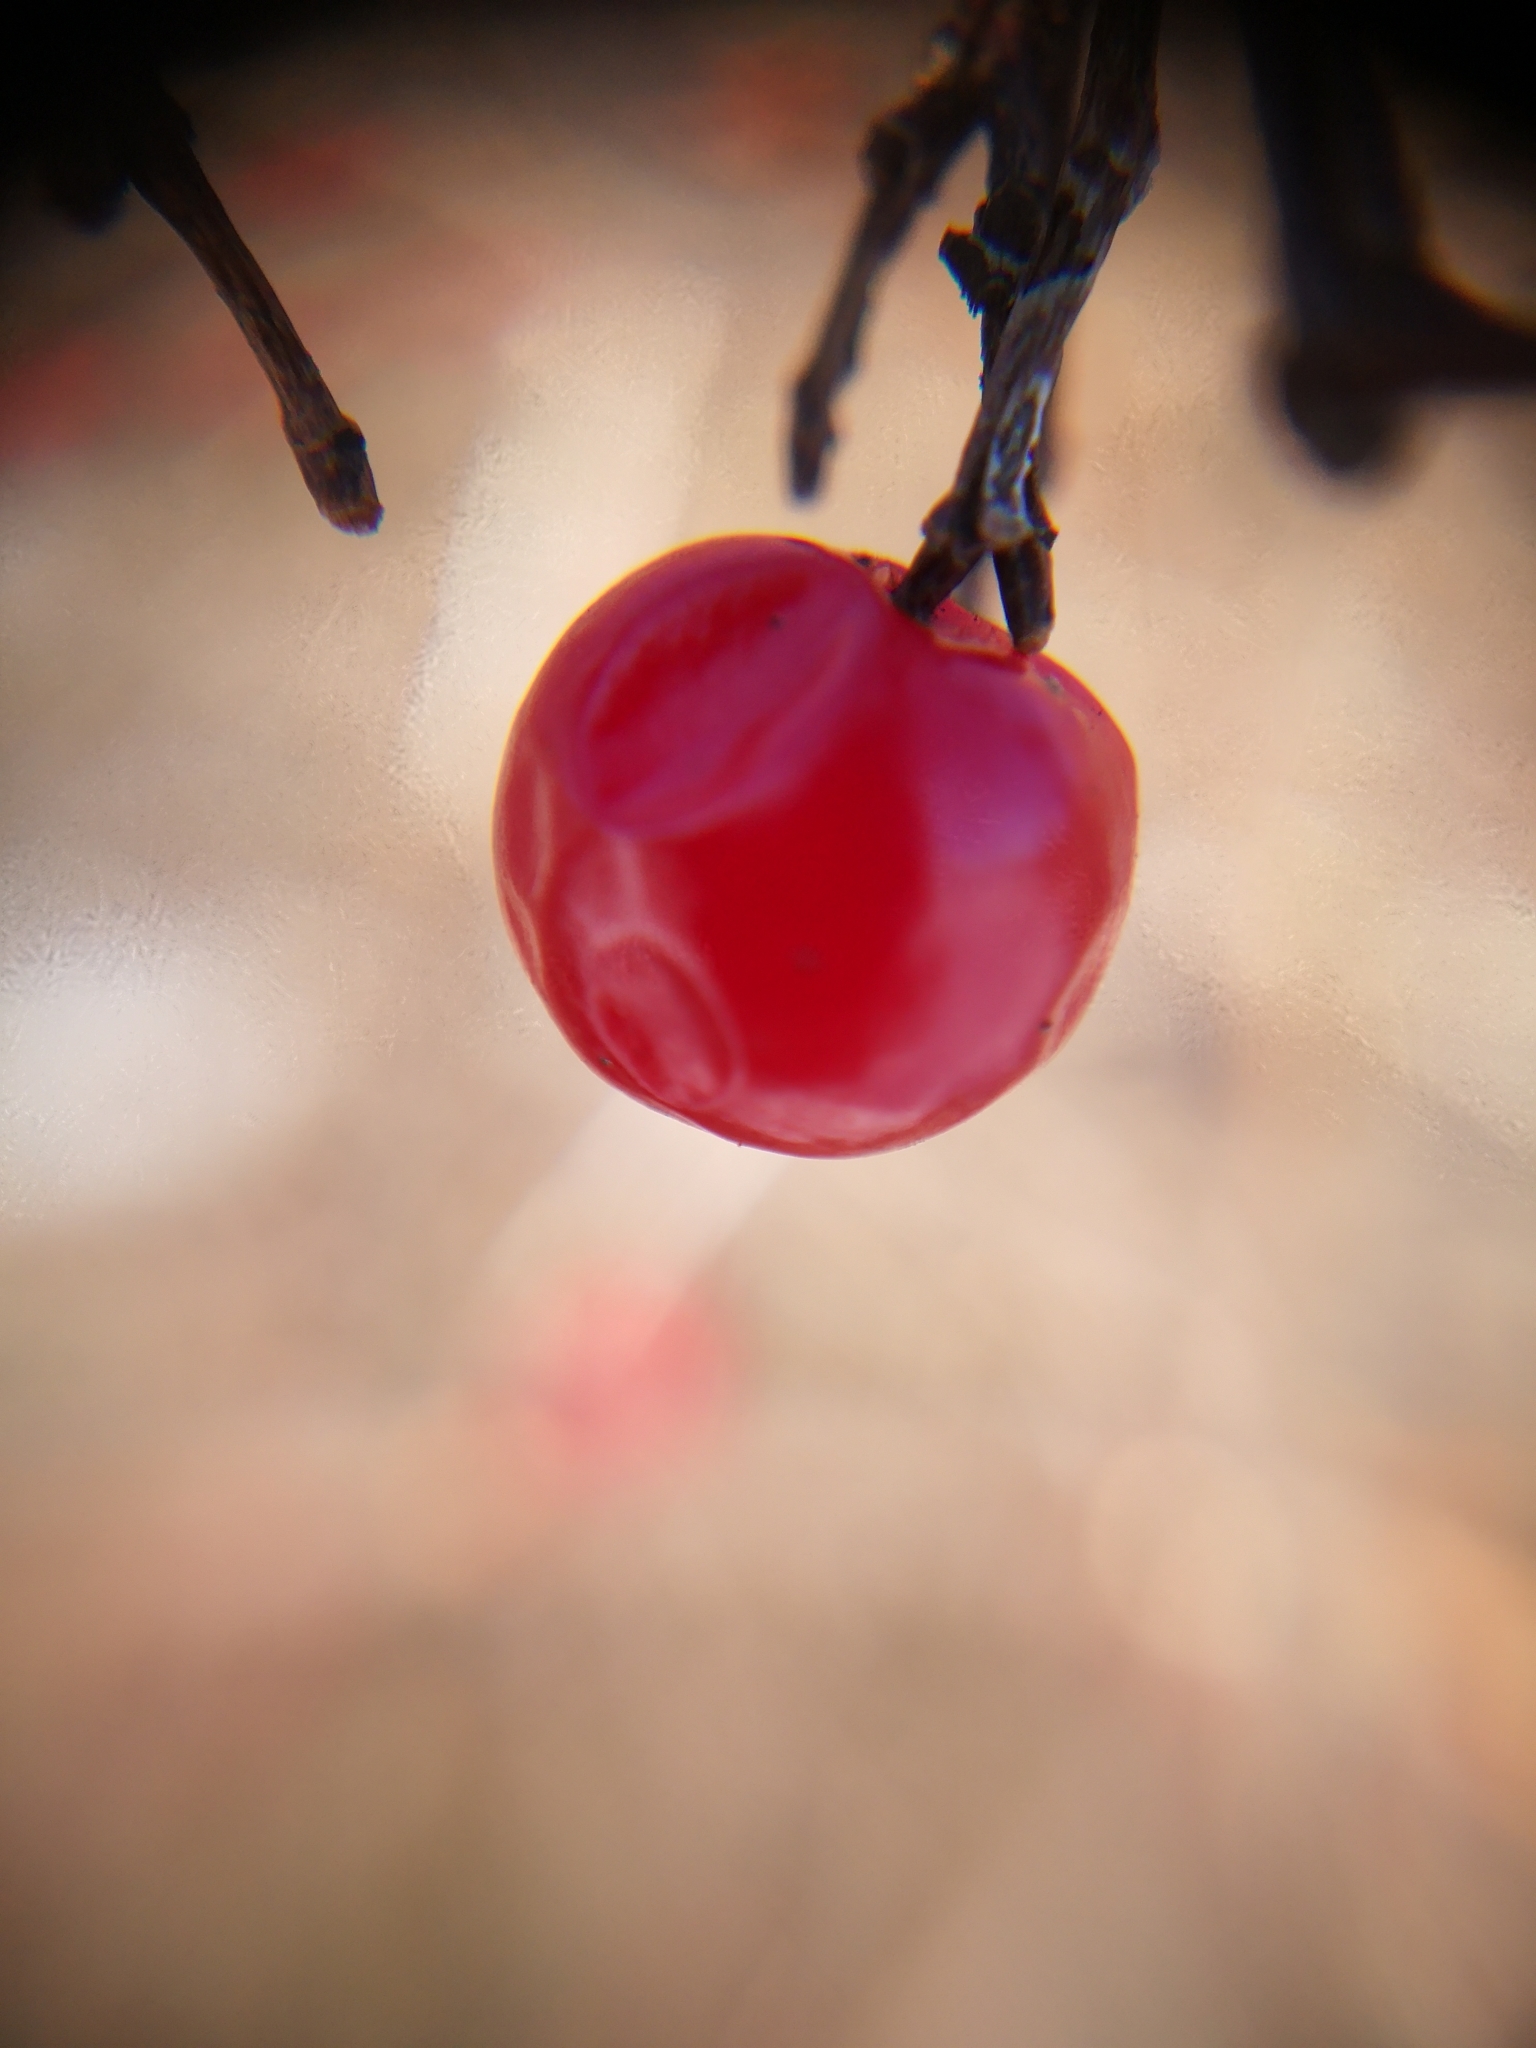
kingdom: Plantae
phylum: Tracheophyta
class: Magnoliopsida
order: Dipsacales
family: Viburnaceae
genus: Viburnum
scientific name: Viburnum opulus
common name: Guelder-rose
